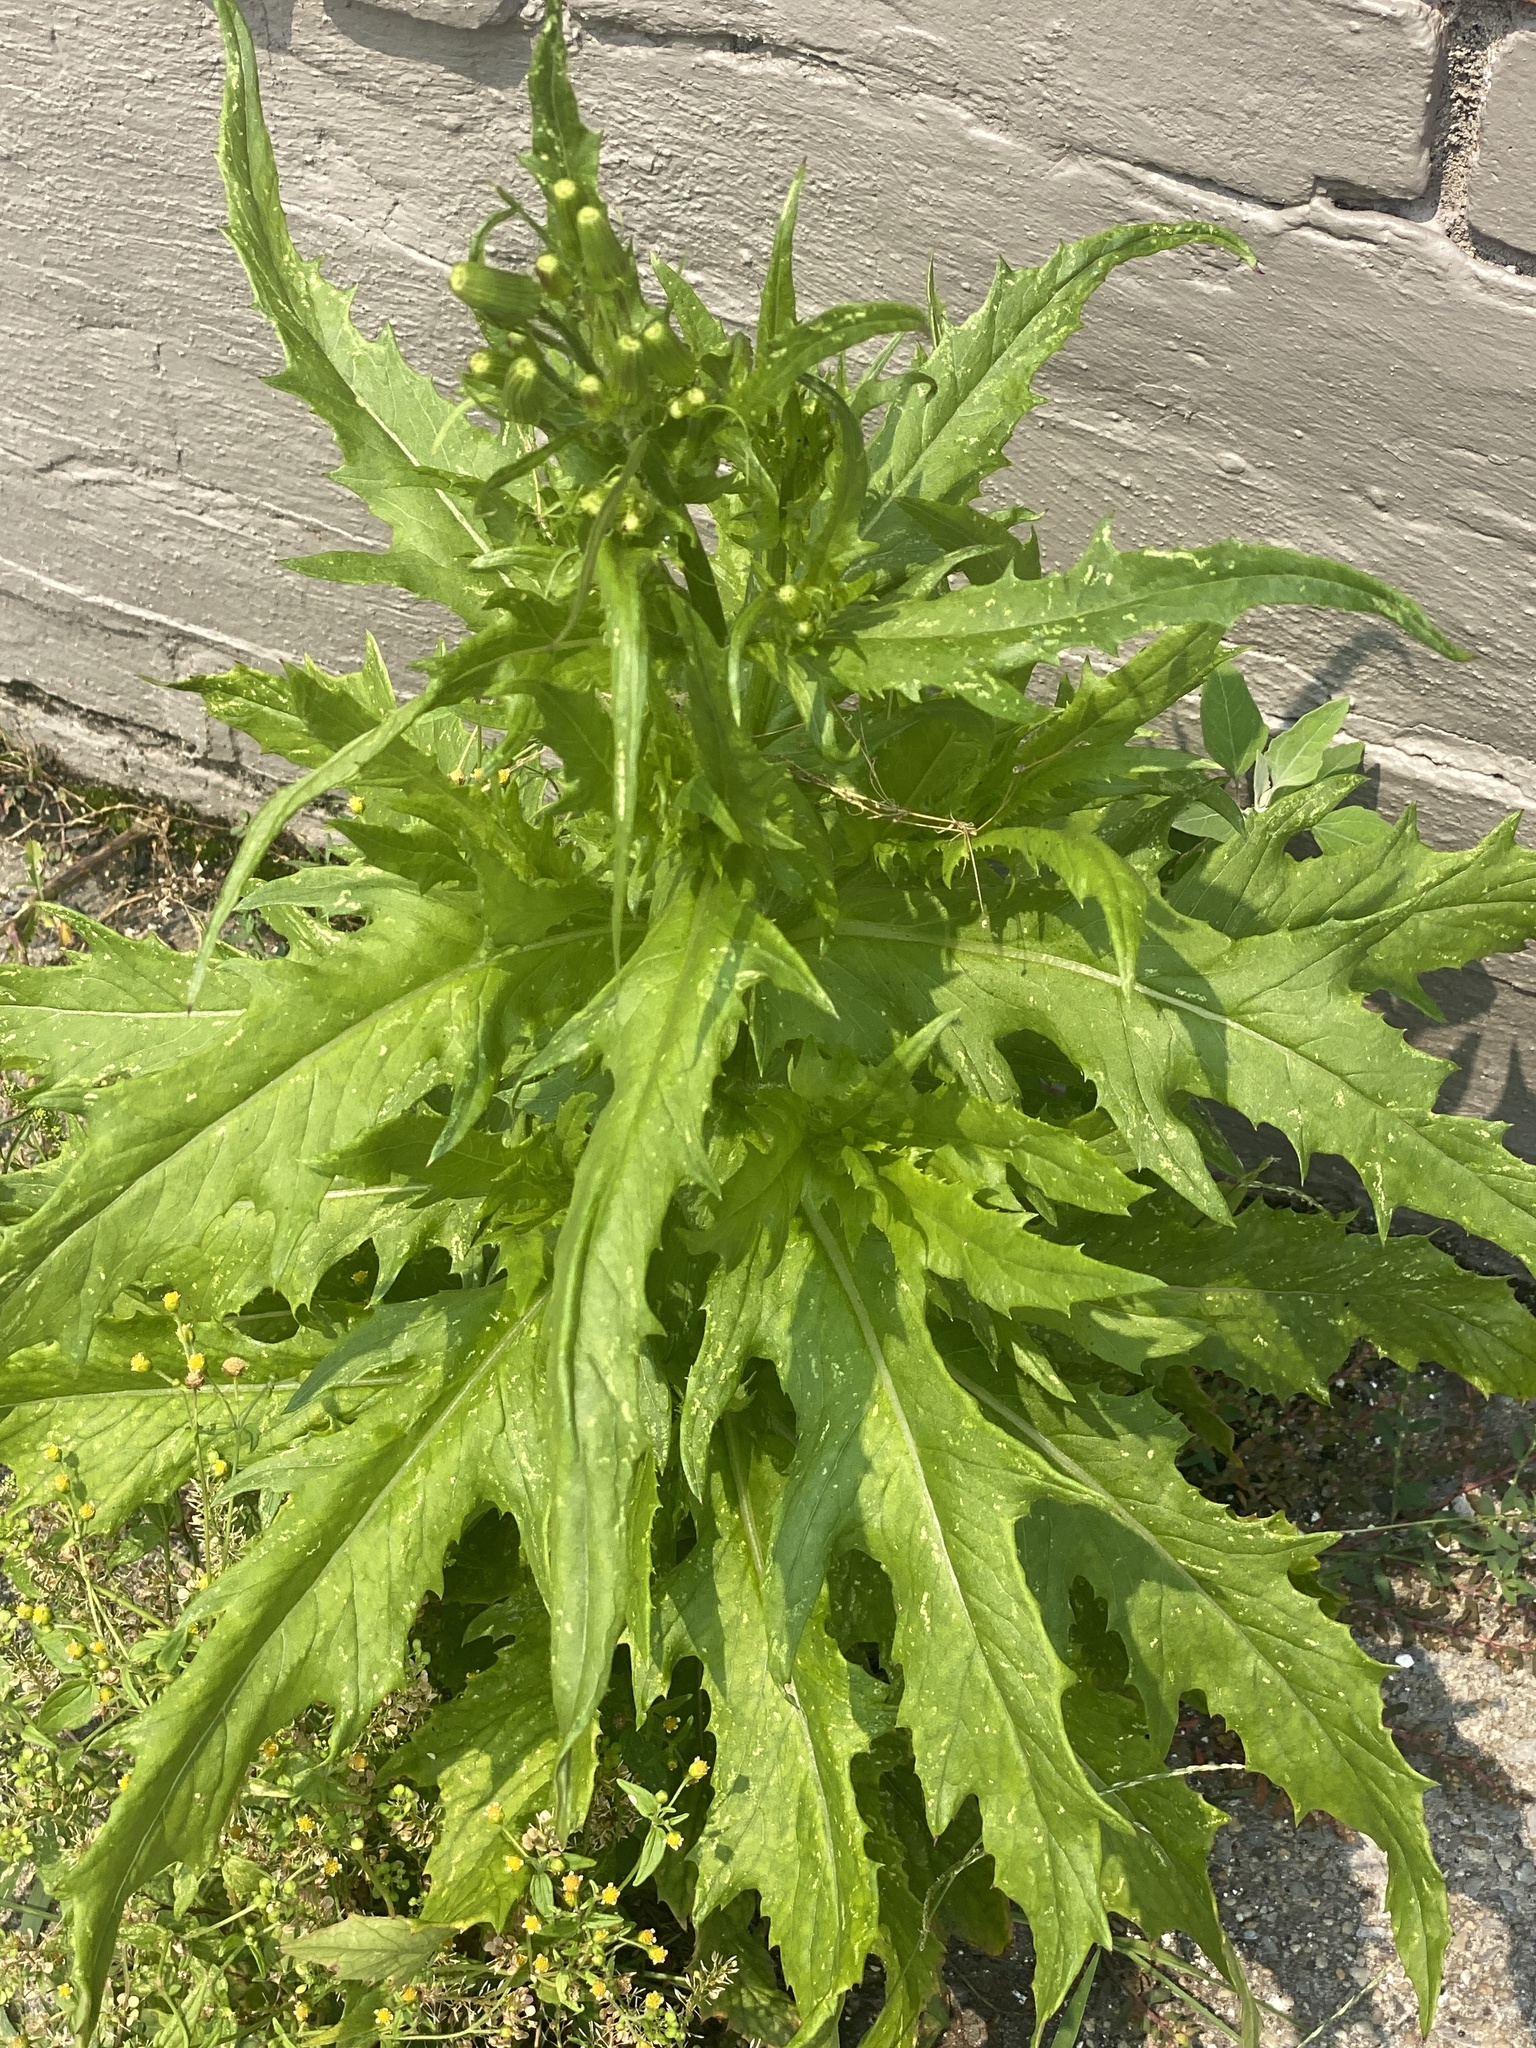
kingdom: Plantae
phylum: Tracheophyta
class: Magnoliopsida
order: Asterales
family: Asteraceae
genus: Erechtites
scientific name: Erechtites hieraciifolius
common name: American burnweed
